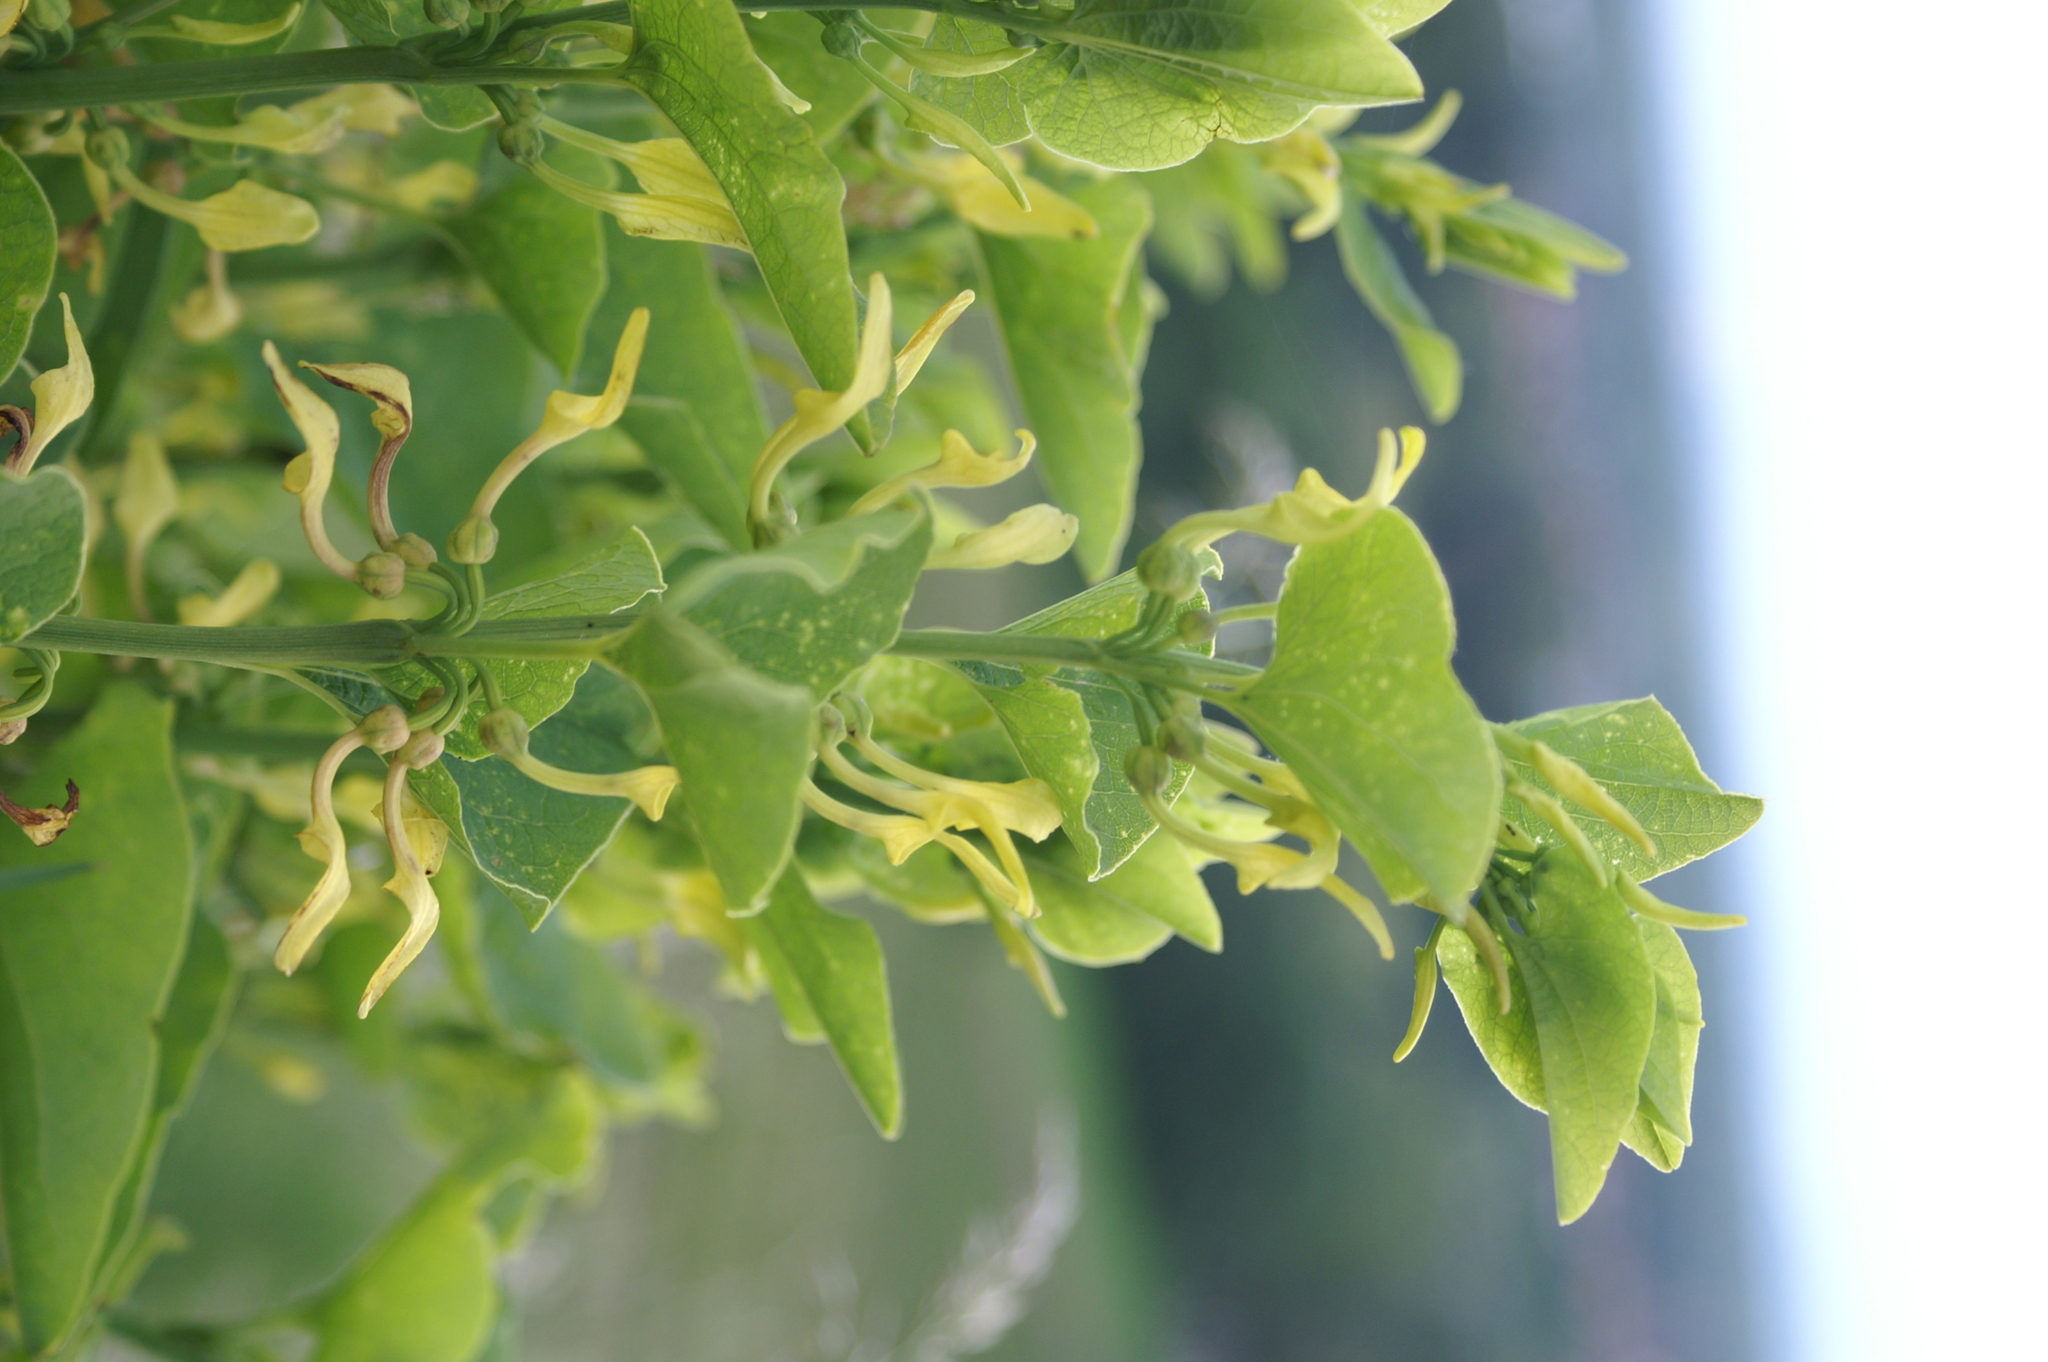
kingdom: Plantae
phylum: Tracheophyta
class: Magnoliopsida
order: Piperales
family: Aristolochiaceae
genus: Aristolochia
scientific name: Aristolochia clematitis
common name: Birthwort
